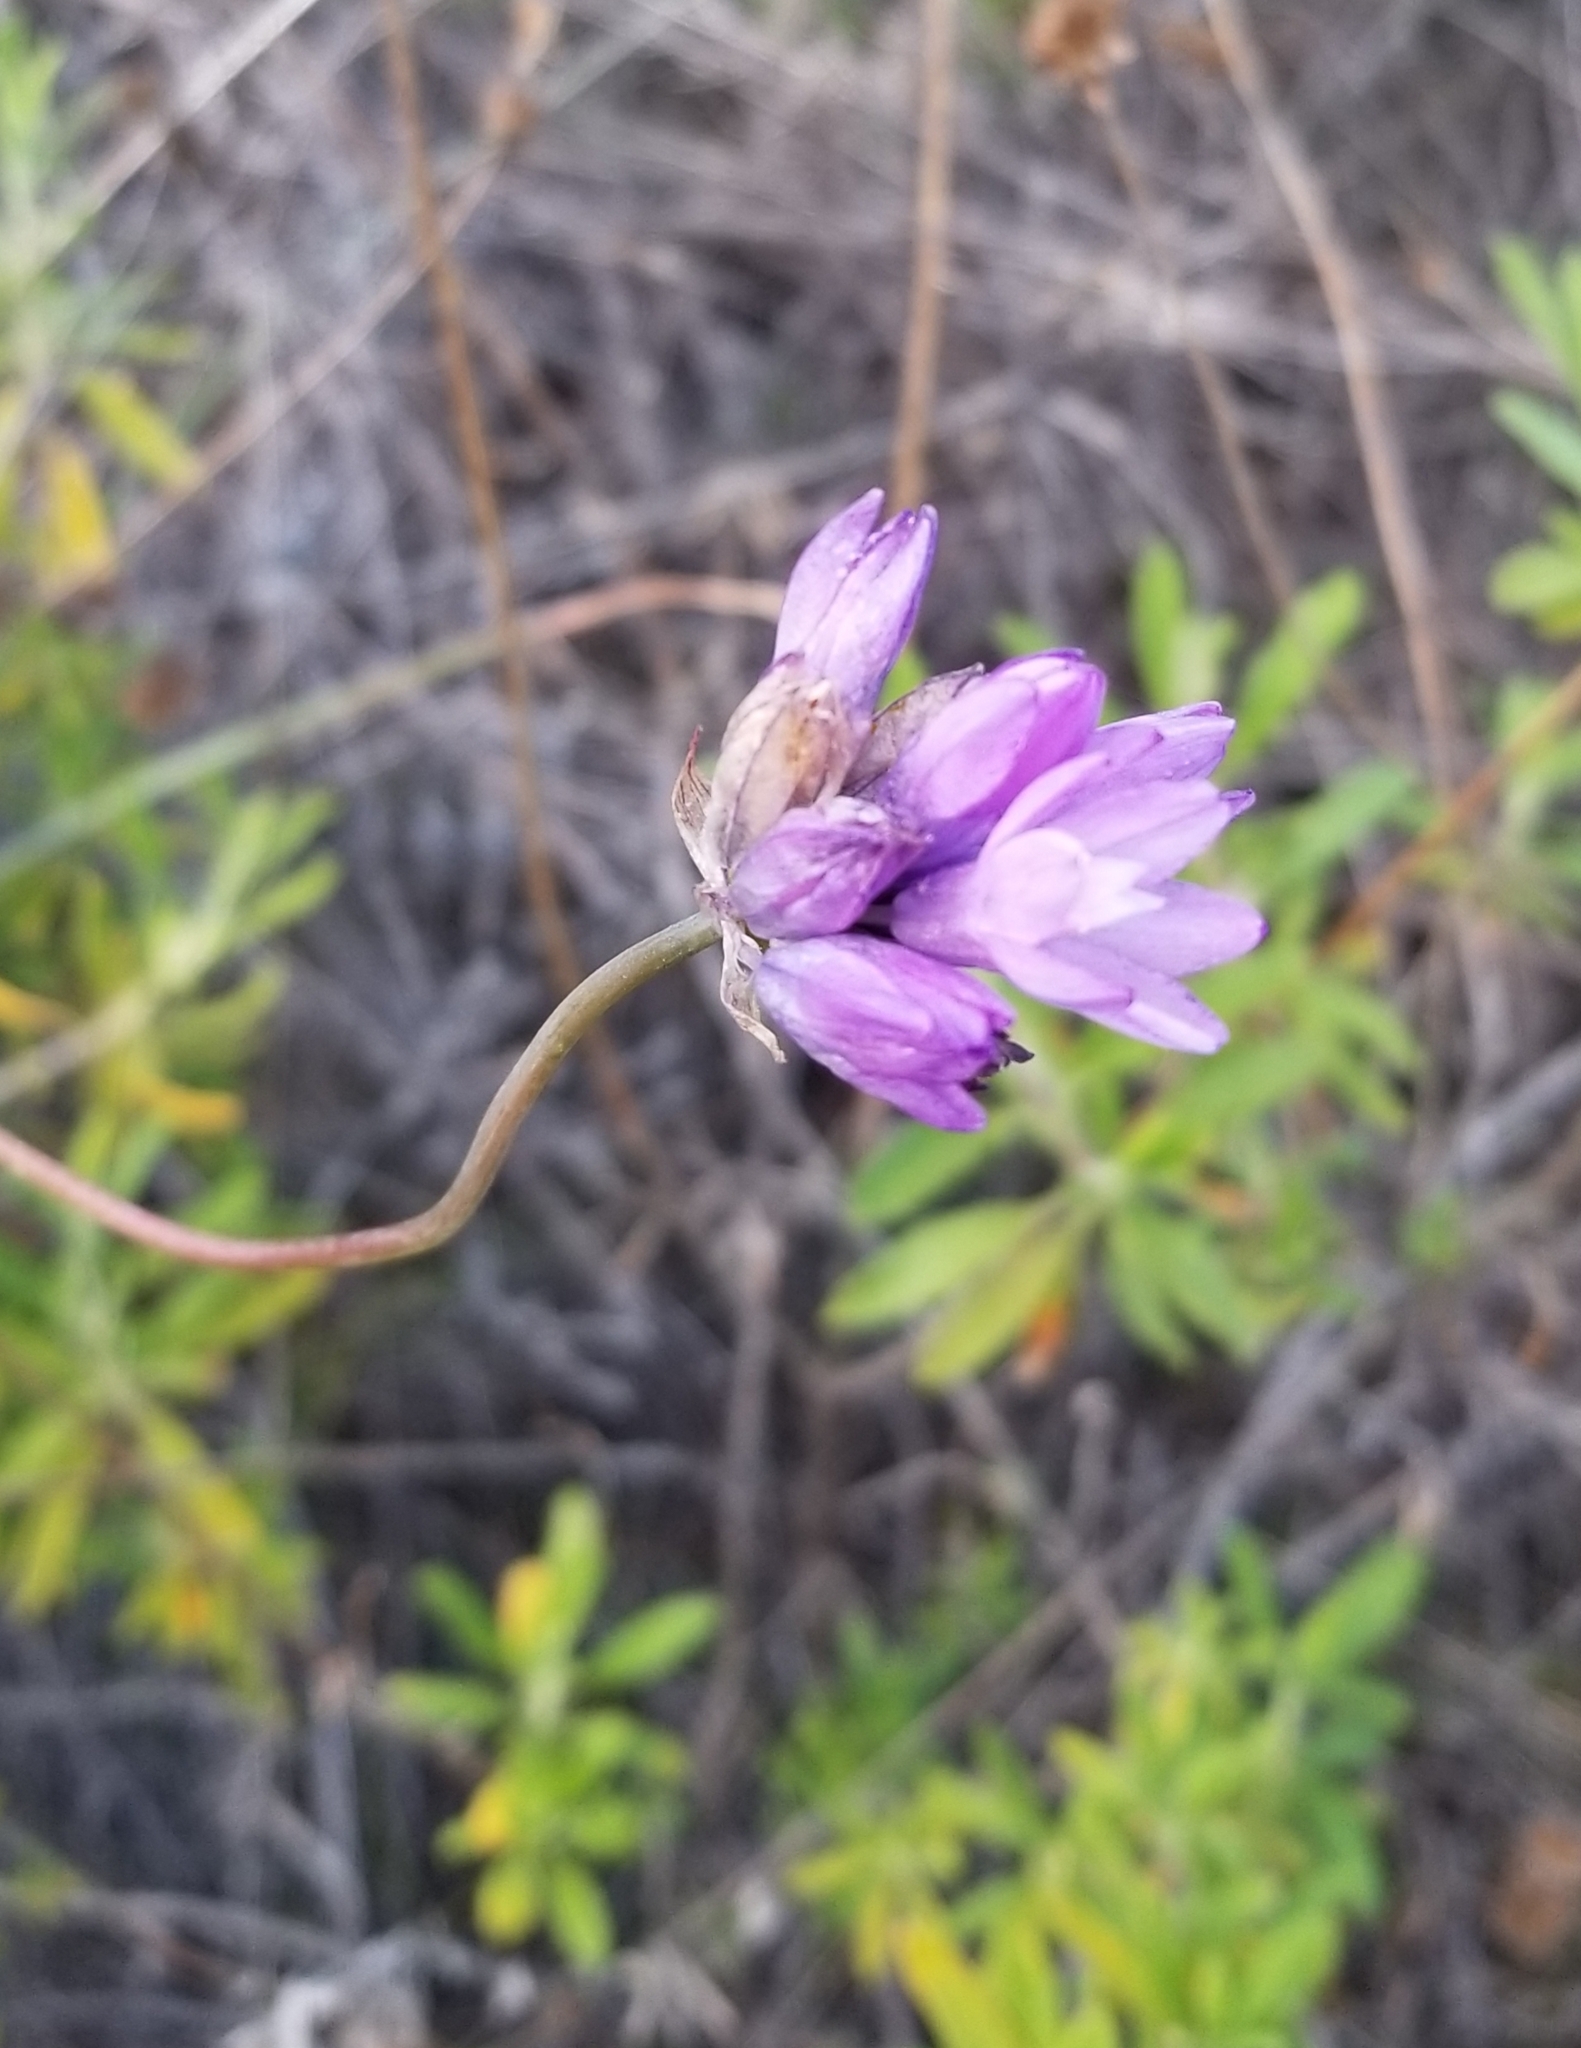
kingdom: Plantae
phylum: Tracheophyta
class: Liliopsida
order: Asparagales
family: Asparagaceae
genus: Dipterostemon
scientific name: Dipterostemon capitatus
